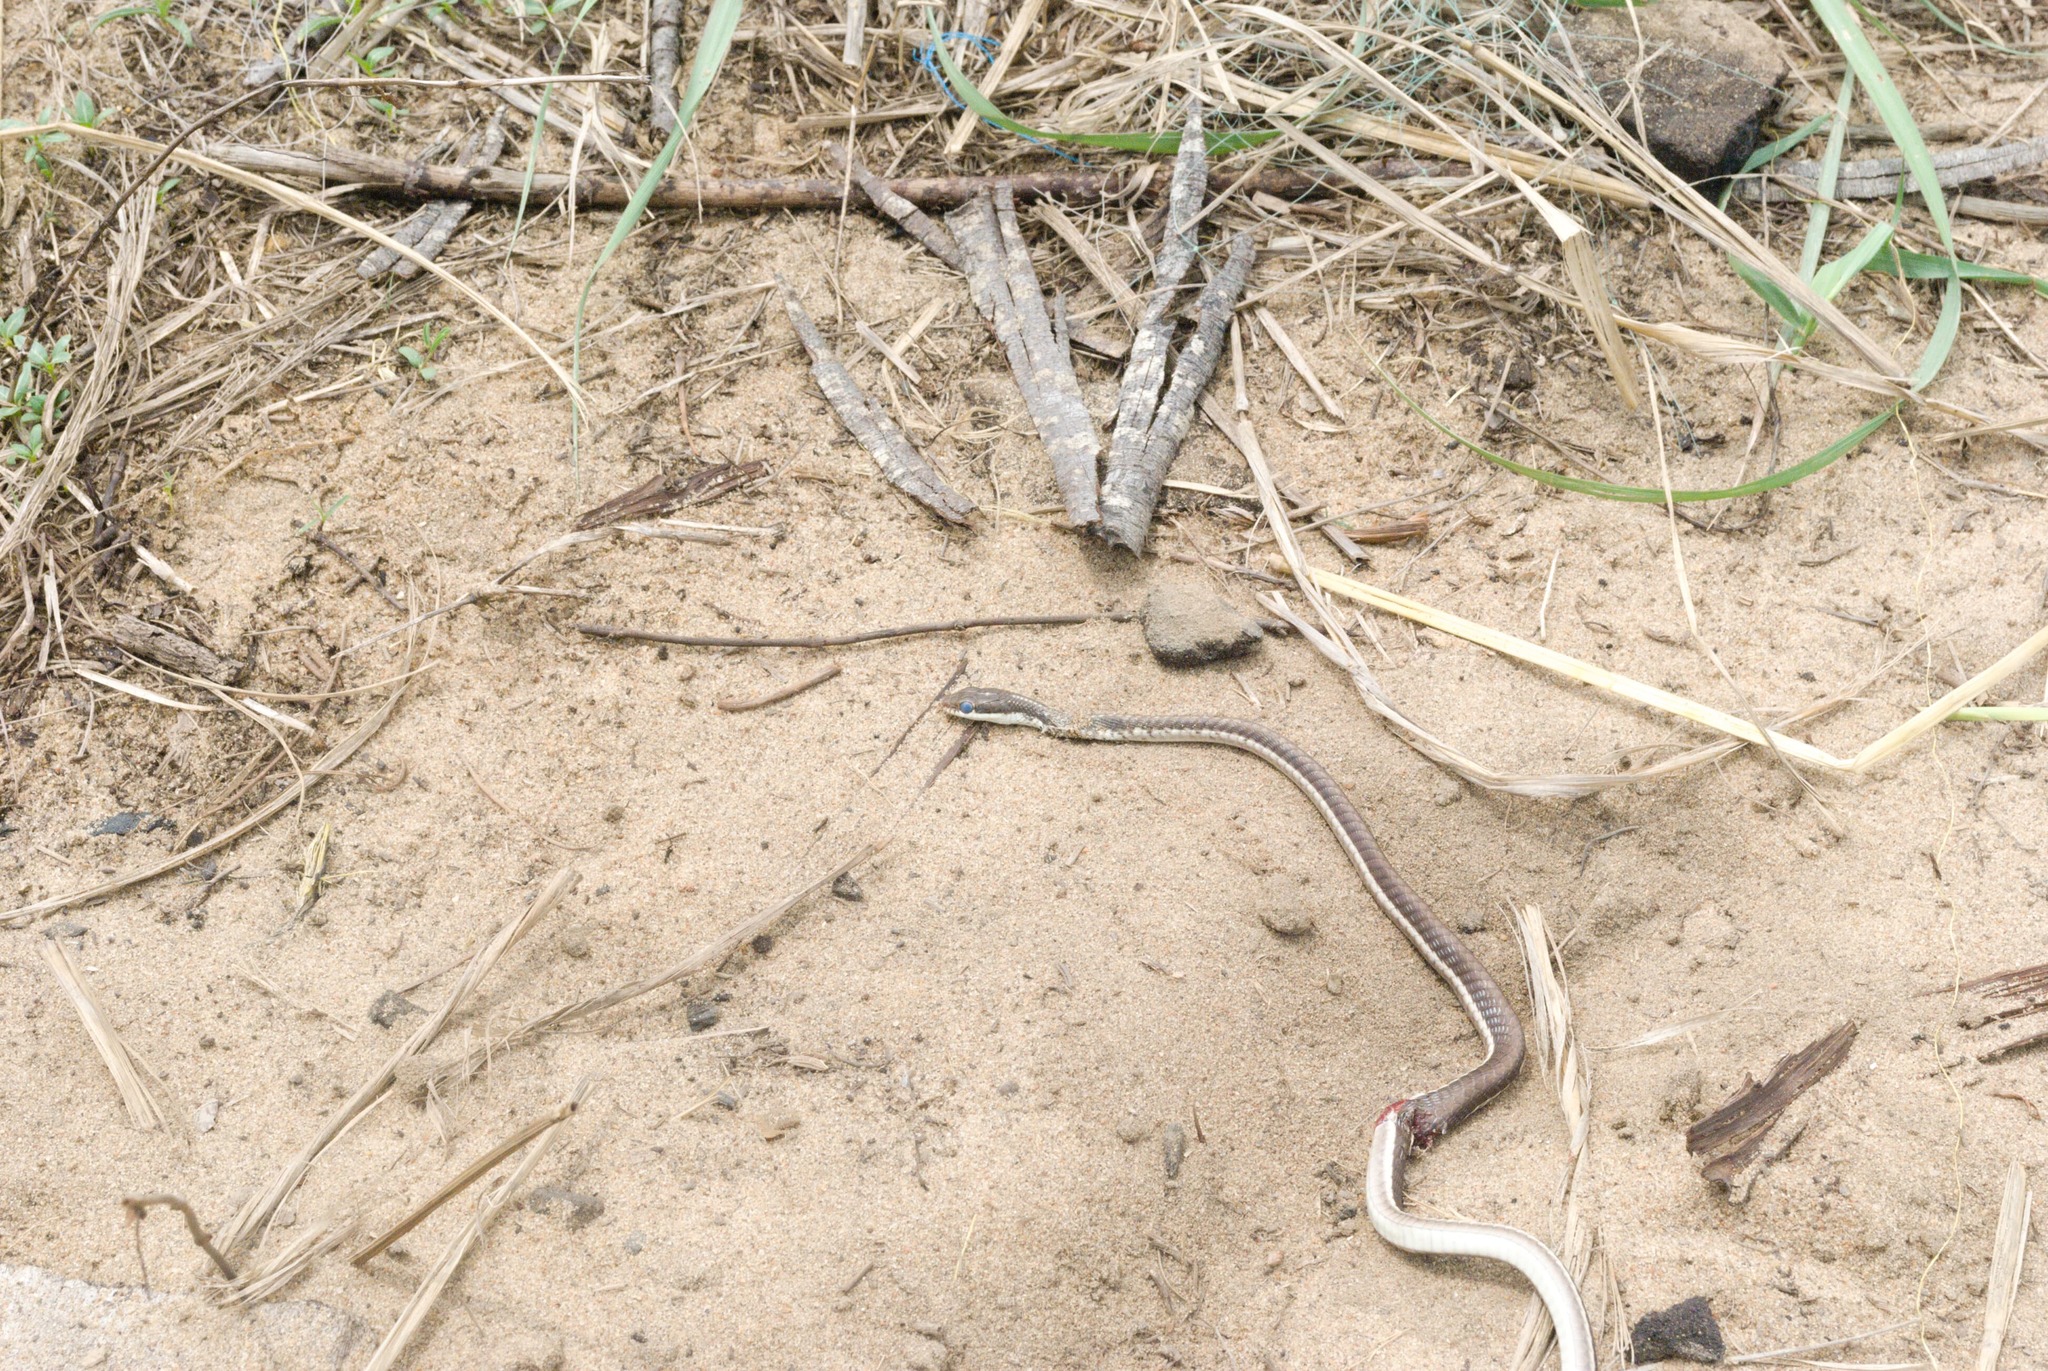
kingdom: Animalia
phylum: Chordata
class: Squamata
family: Colubridae
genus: Dendrelaphis
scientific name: Dendrelaphis tristis
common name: Daudin's bronzeback
